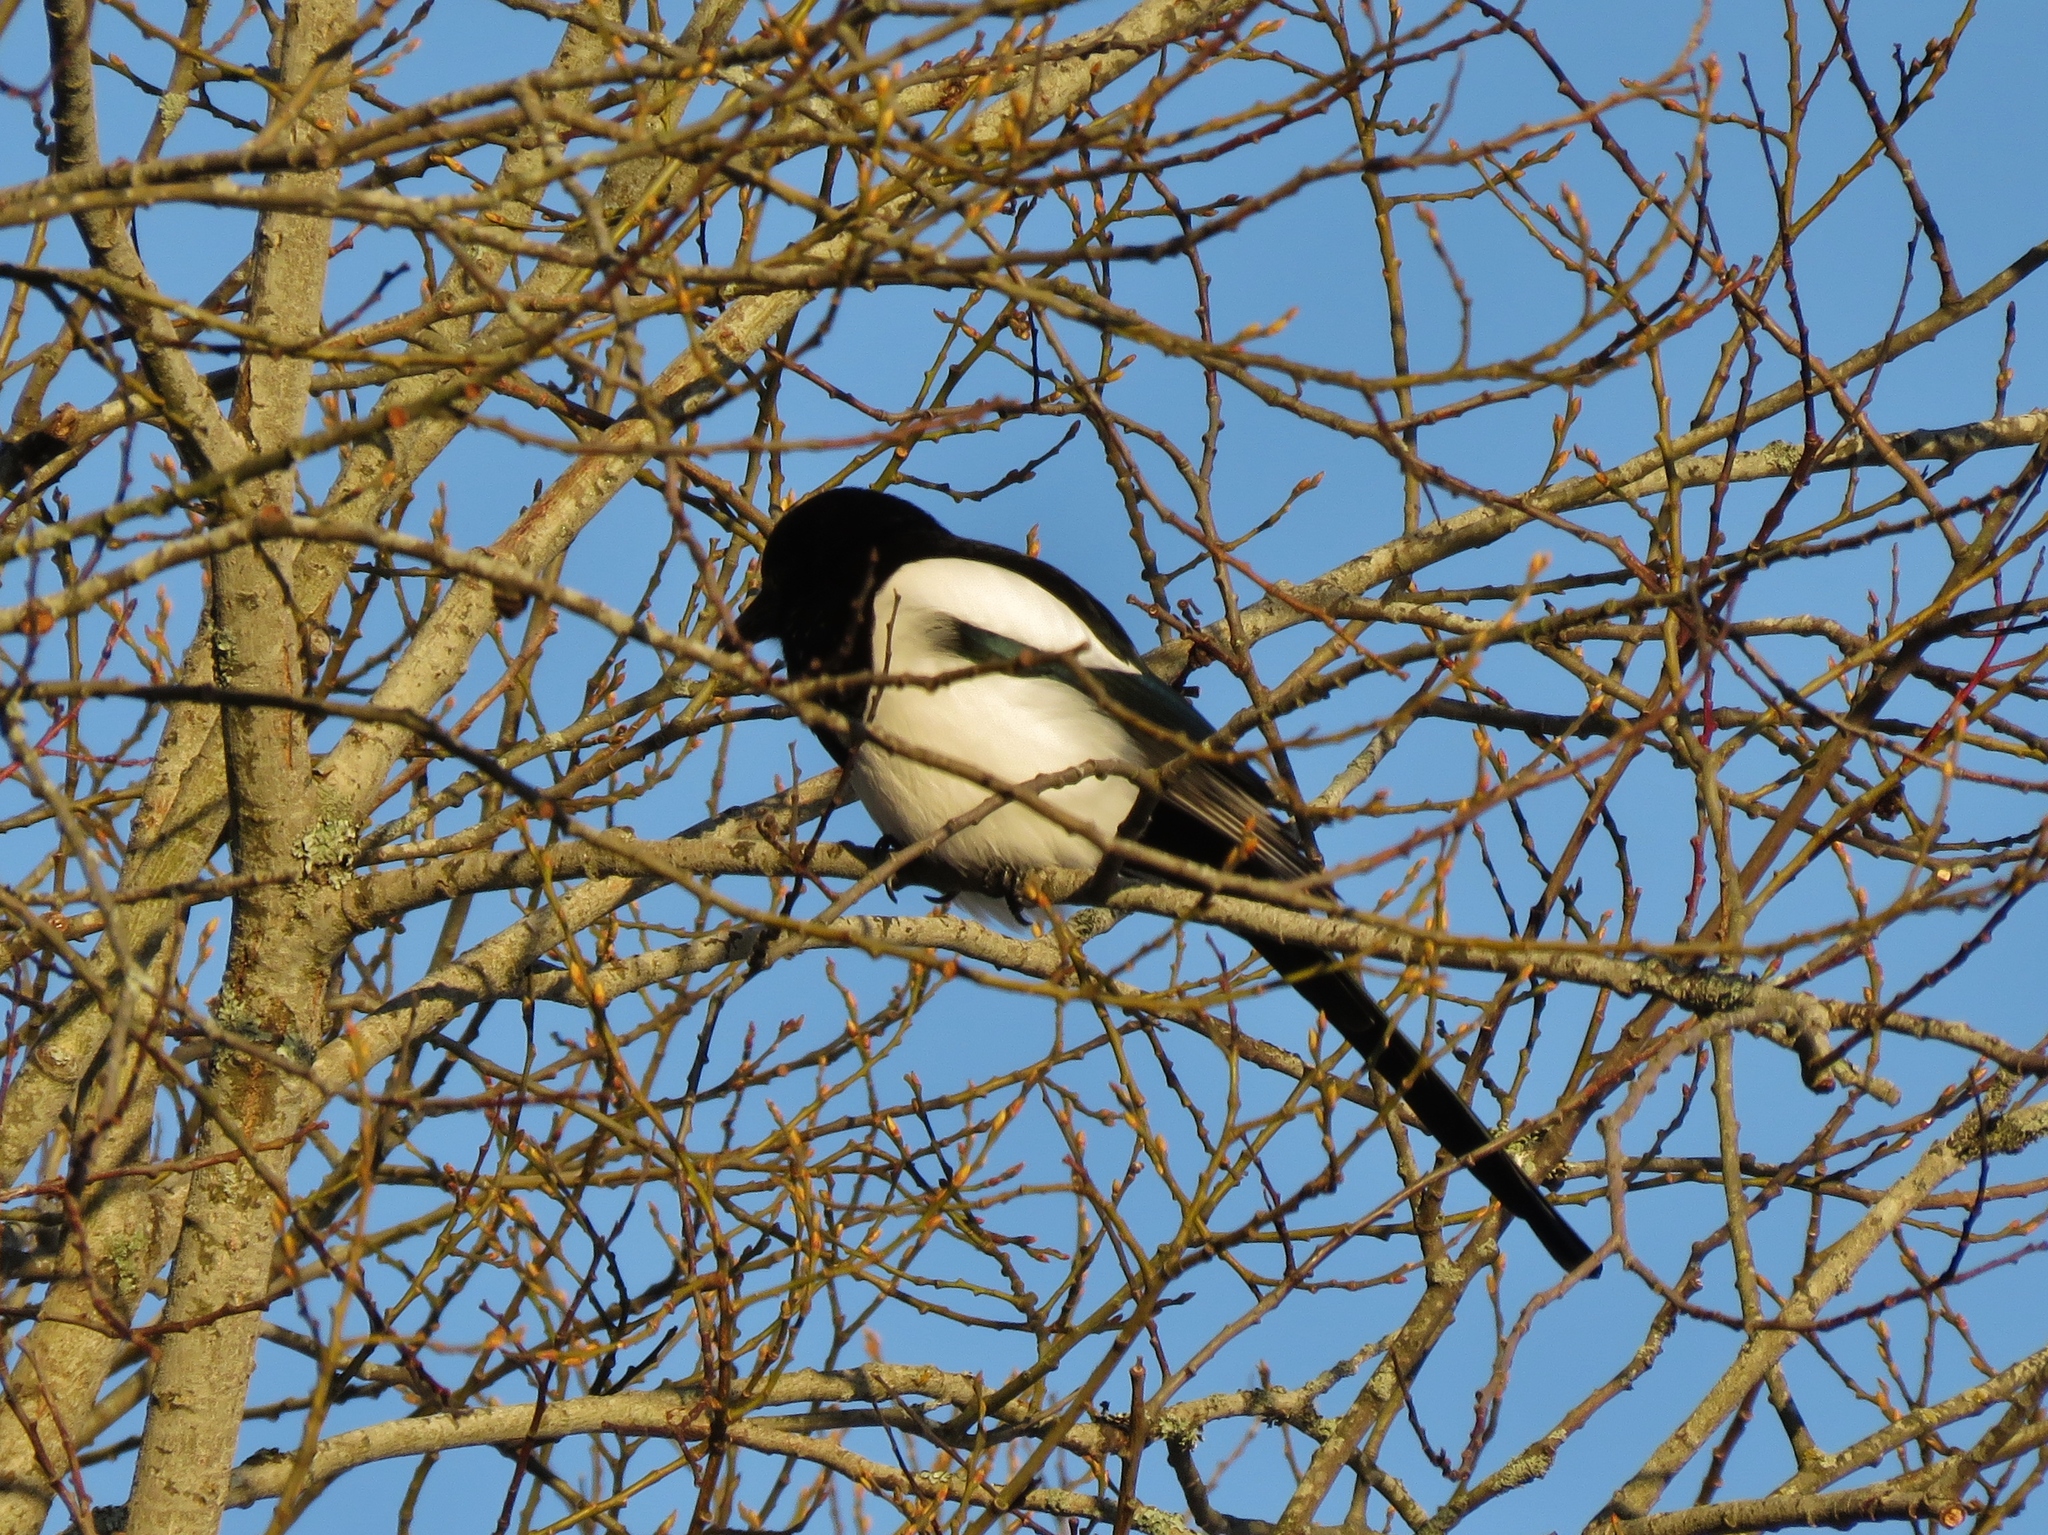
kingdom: Animalia
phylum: Chordata
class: Aves
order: Passeriformes
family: Corvidae
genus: Pica
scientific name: Pica pica
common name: Eurasian magpie
